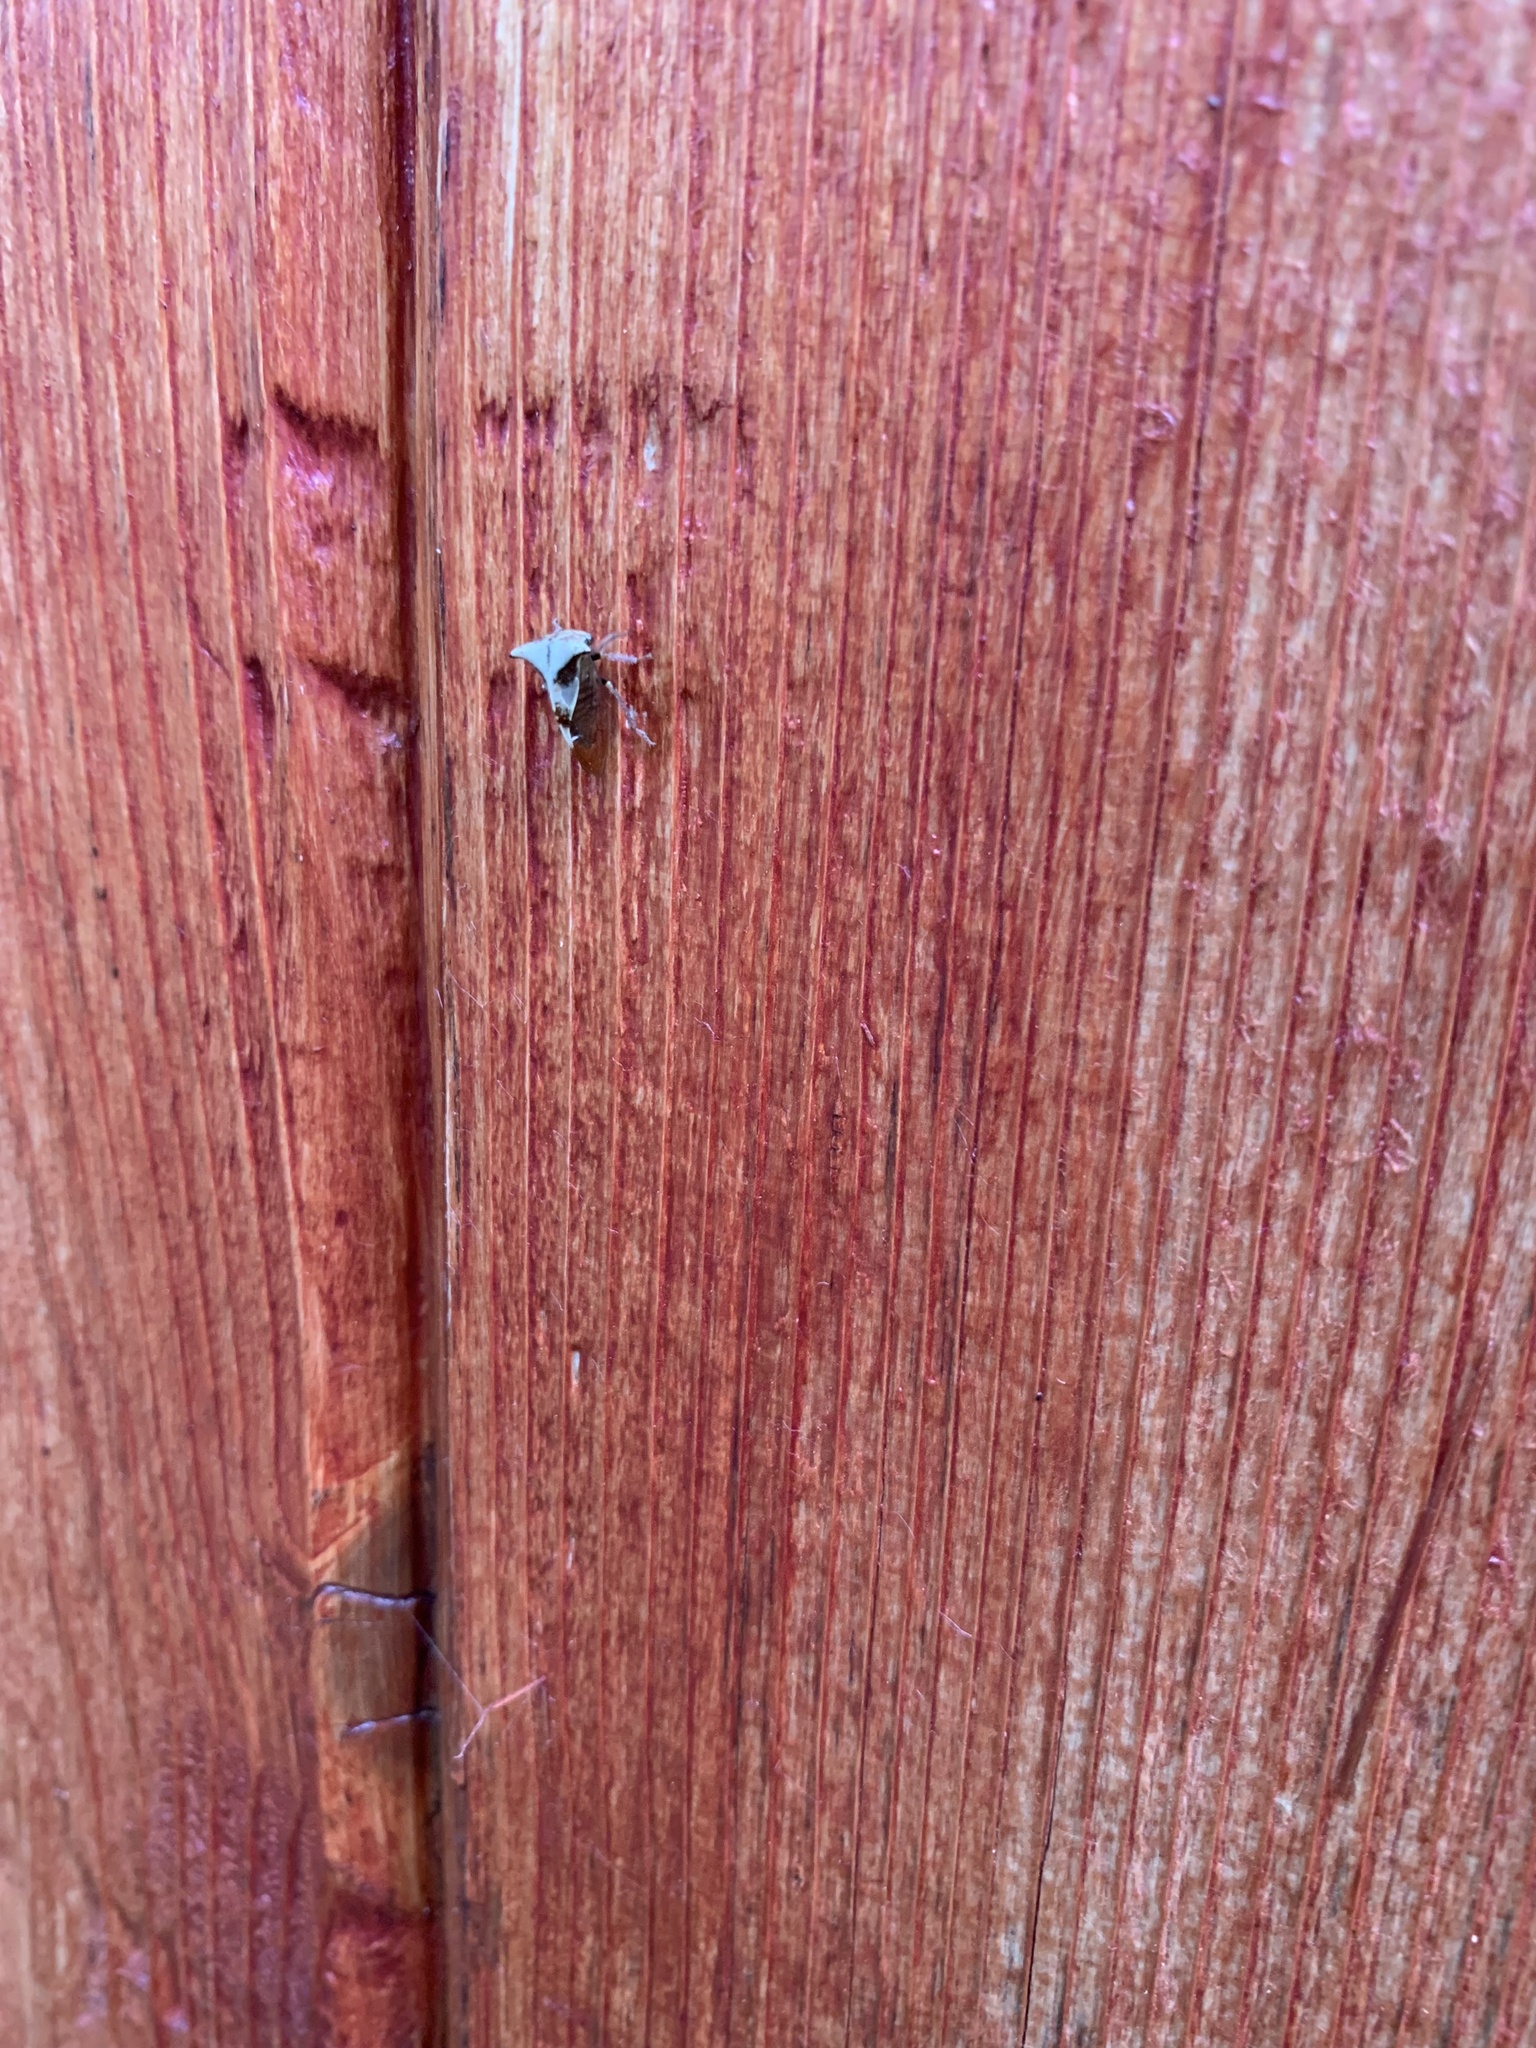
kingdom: Animalia
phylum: Arthropoda
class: Insecta
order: Hemiptera
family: Membracidae
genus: Stictocephala
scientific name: Stictocephala diceros
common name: Two-horned treehopper
